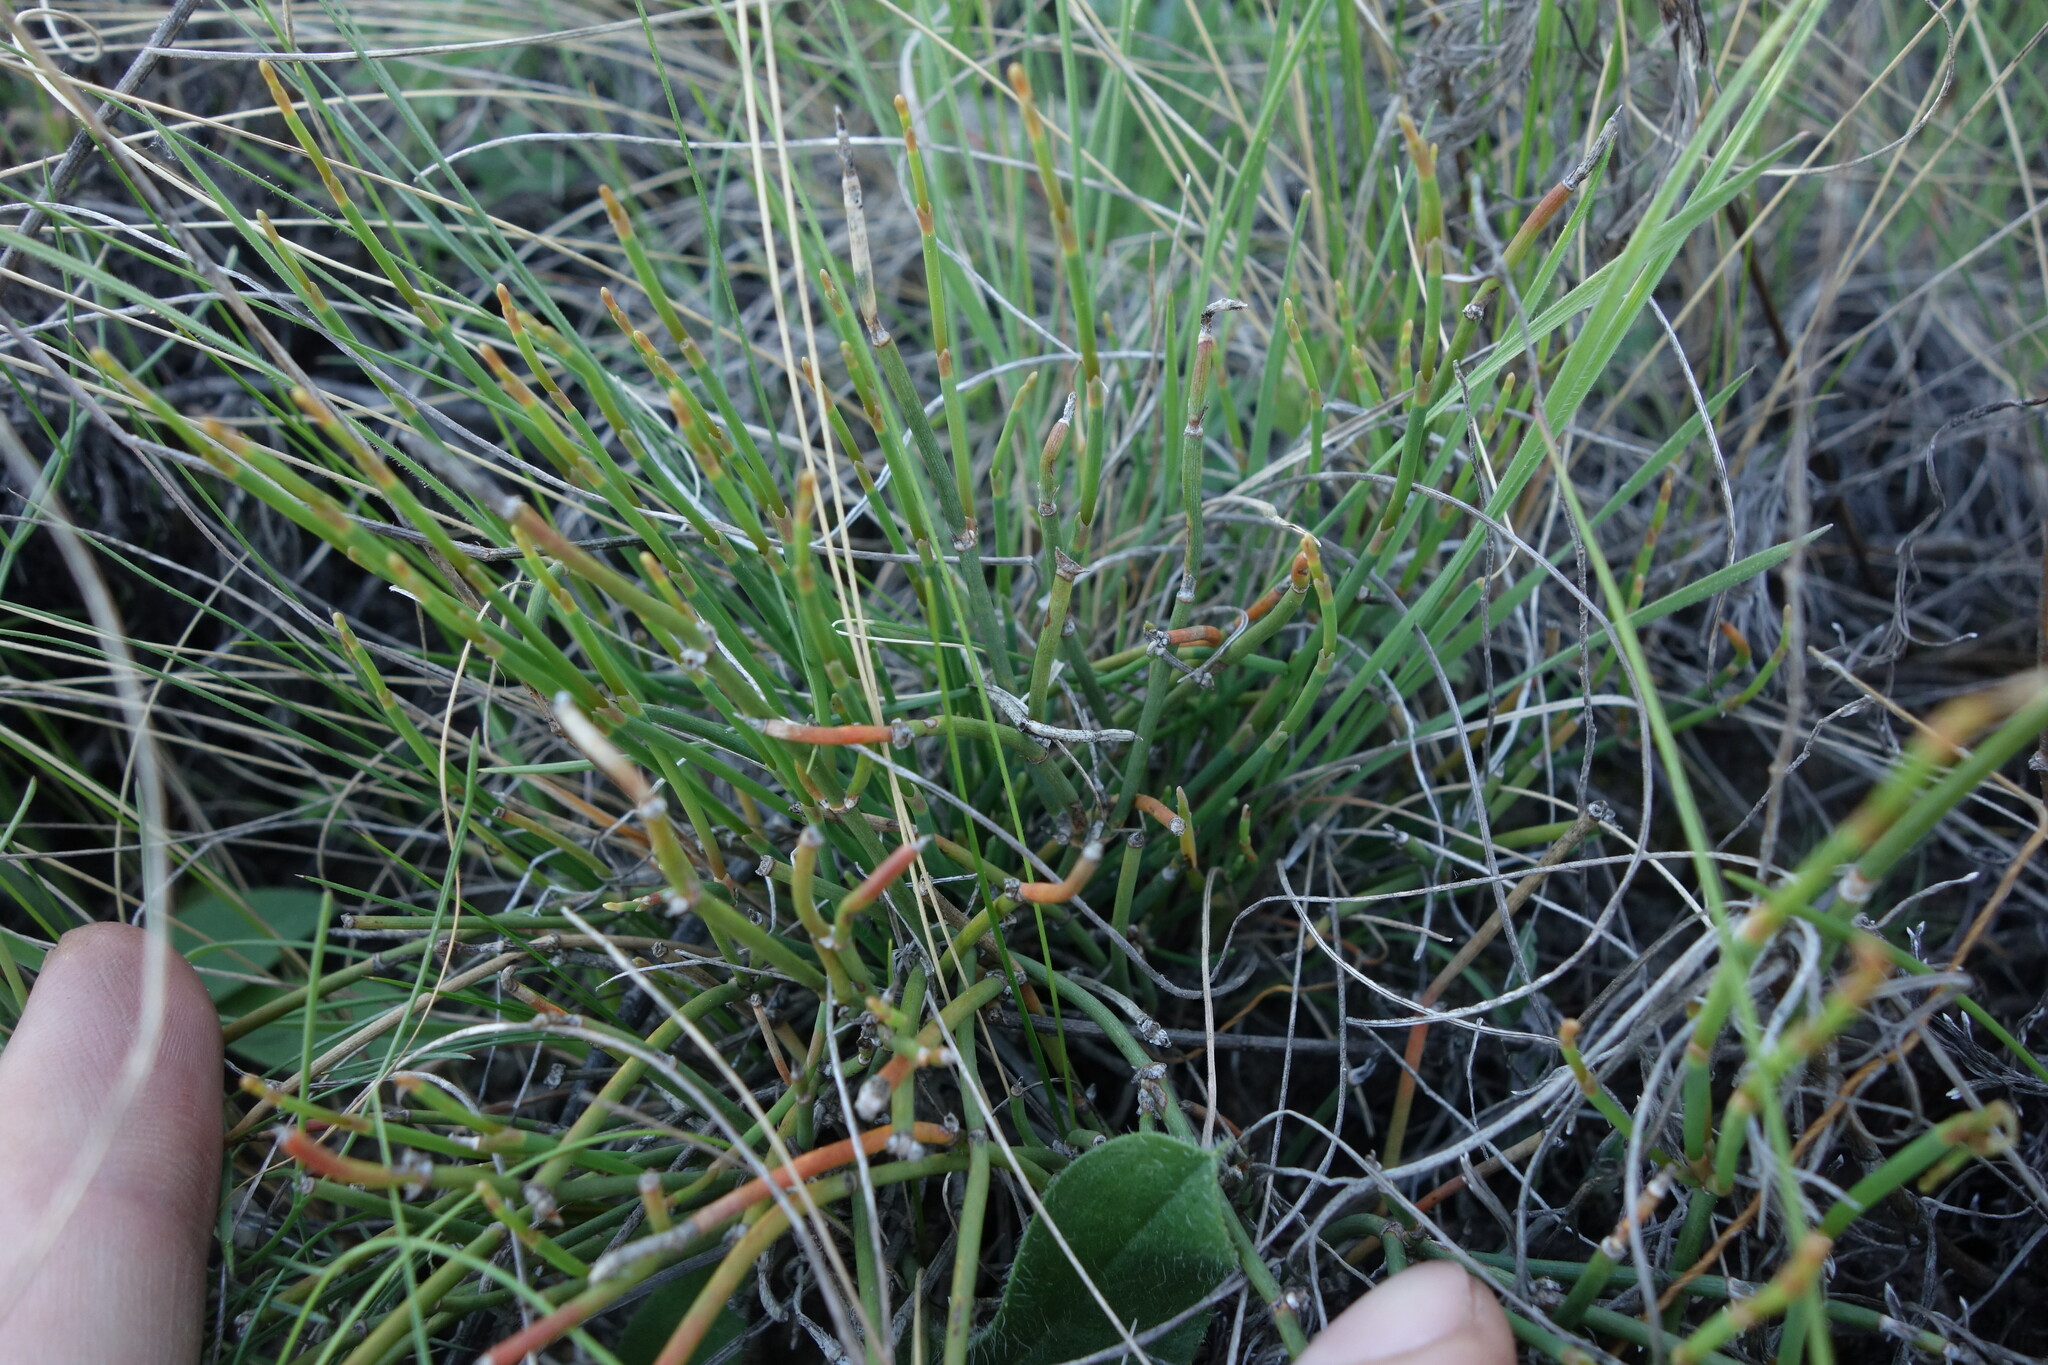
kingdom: Plantae
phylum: Tracheophyta
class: Gnetopsida
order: Ephedrales
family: Ephedraceae
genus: Ephedra
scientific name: Ephedra distachya
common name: Sea grape
